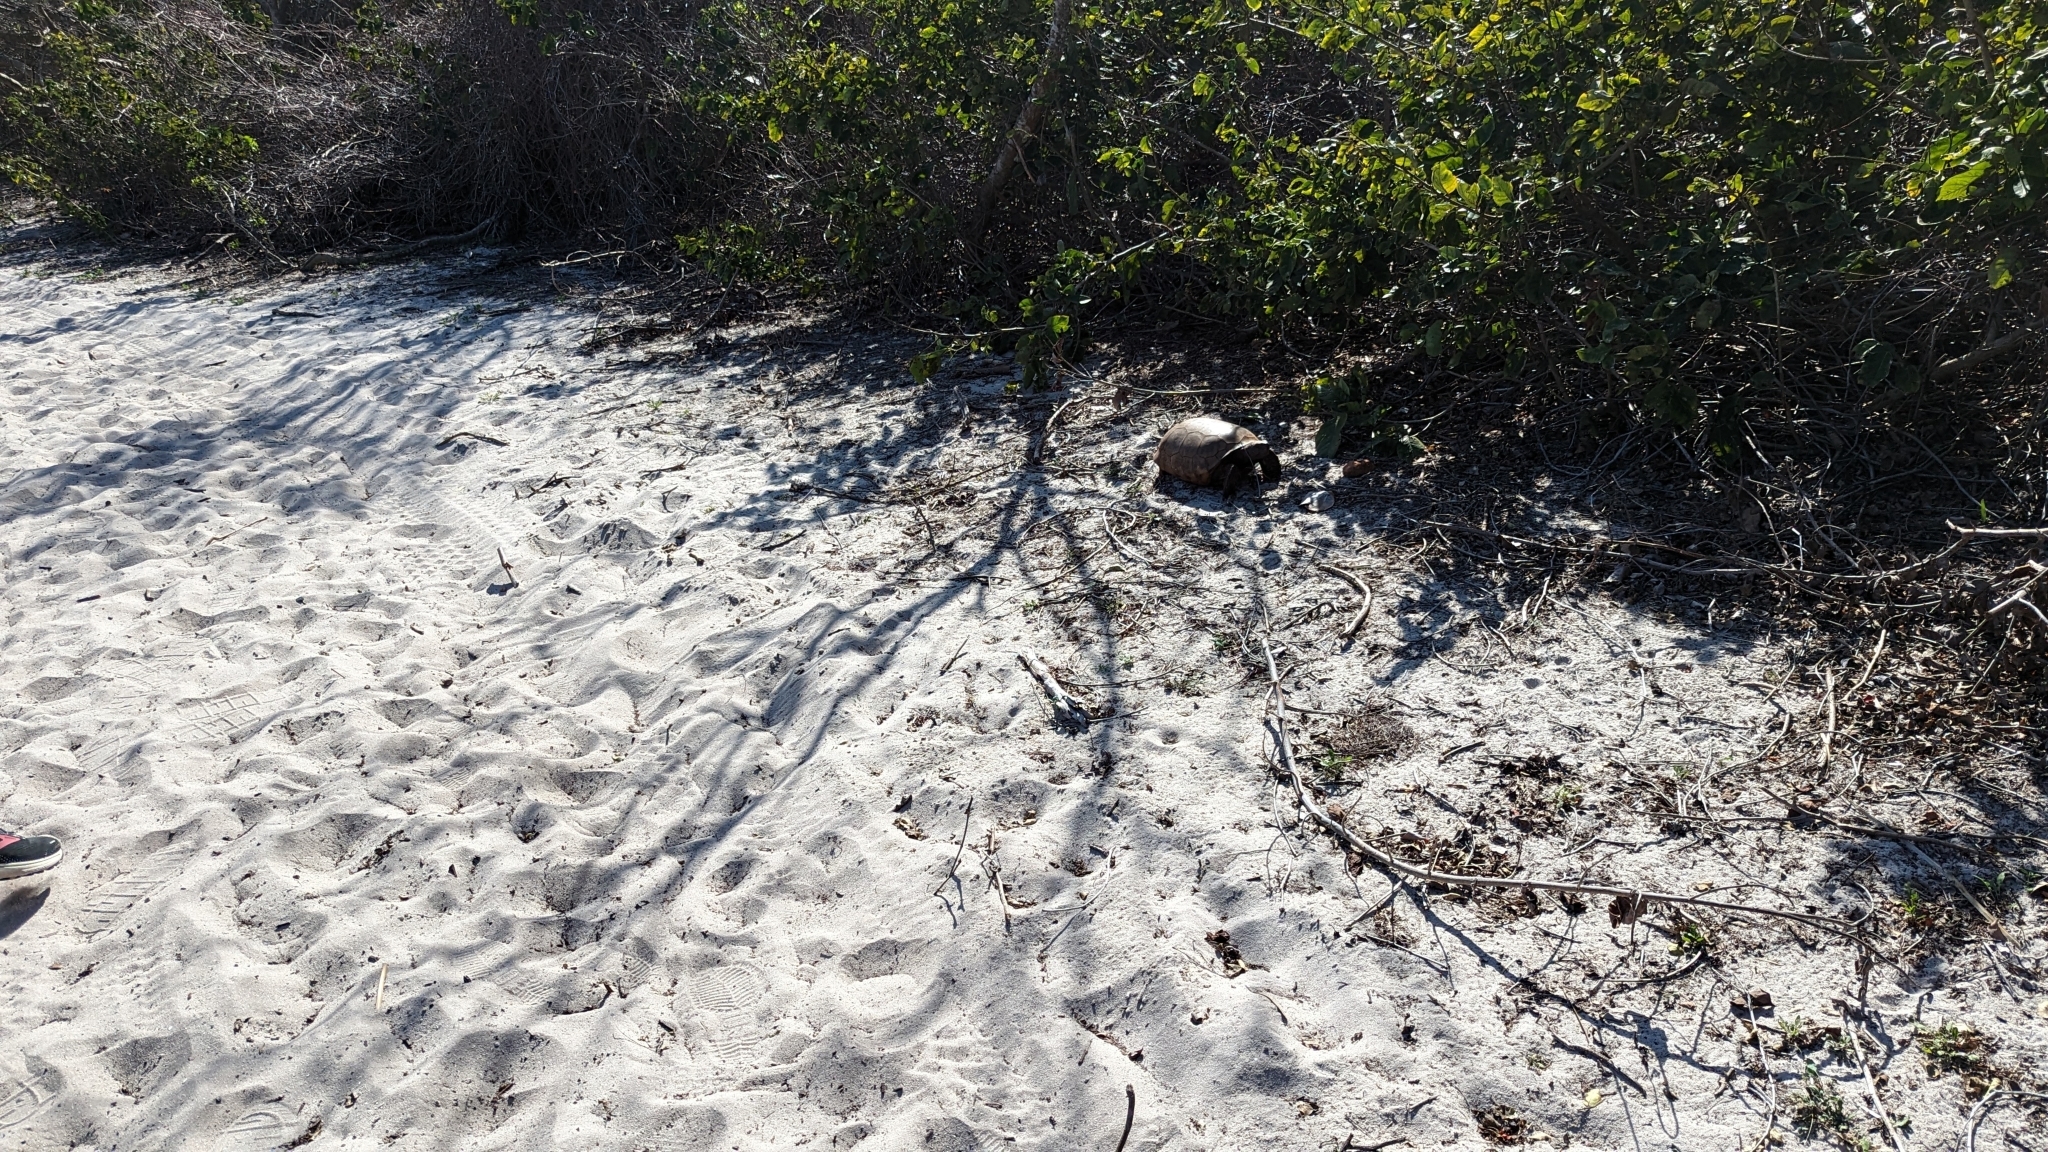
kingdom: Animalia
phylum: Chordata
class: Testudines
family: Testudinidae
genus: Gopherus
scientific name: Gopherus polyphemus
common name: Florida gopher tortoise
